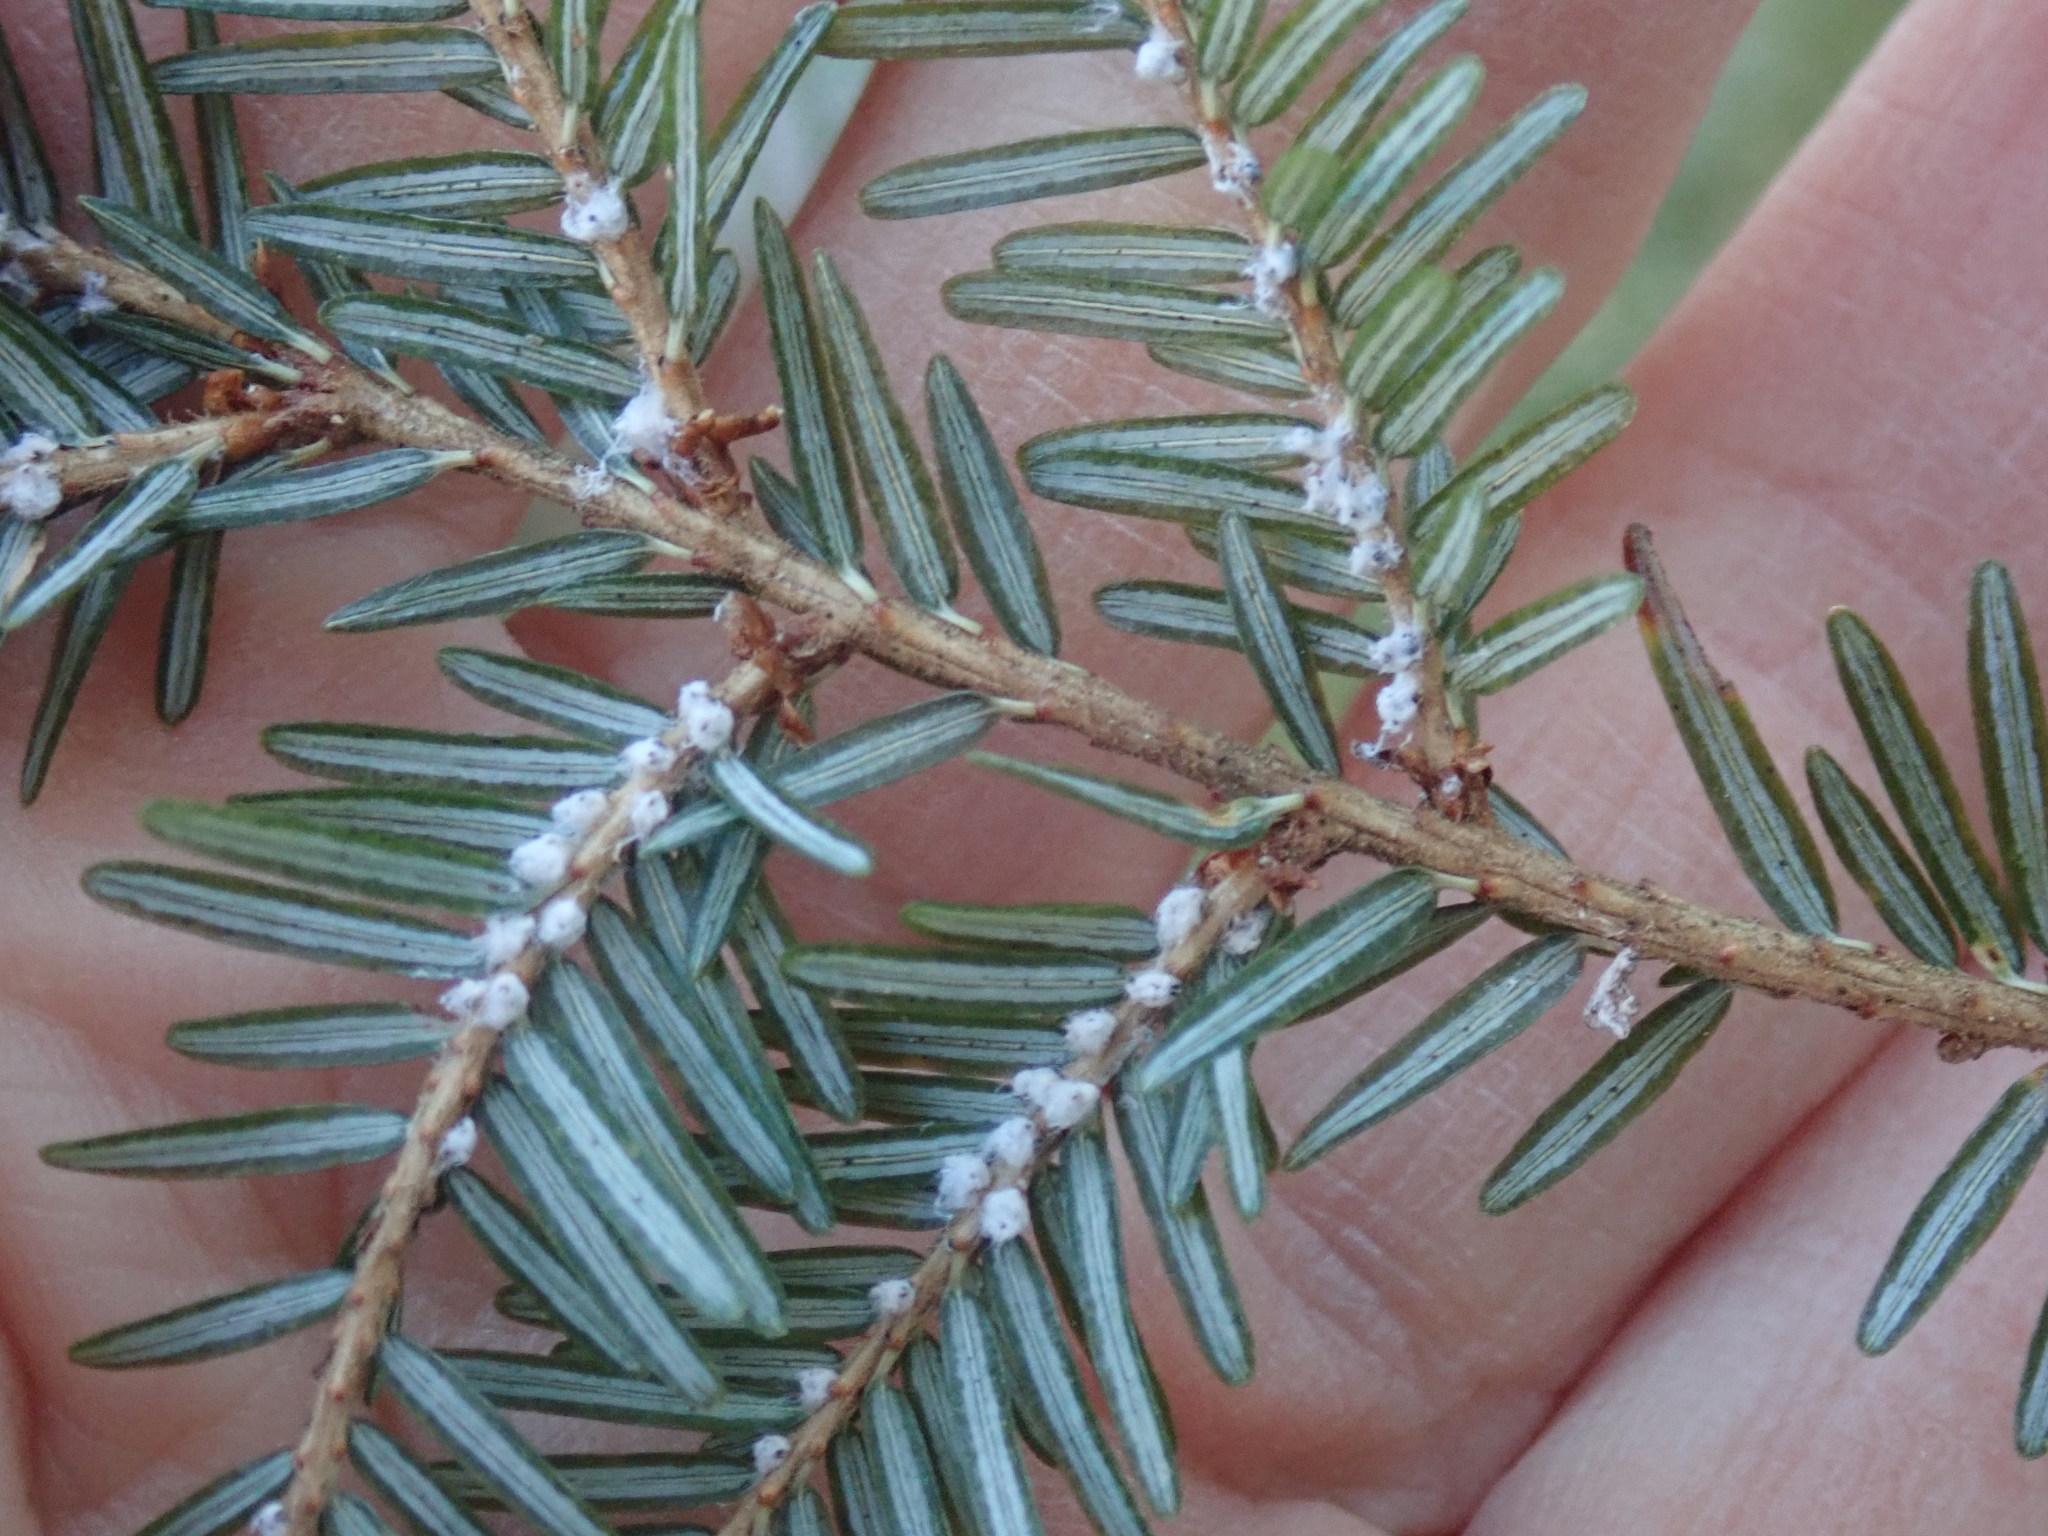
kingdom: Animalia
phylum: Arthropoda
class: Insecta
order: Hemiptera
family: Adelgidae
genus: Adelges
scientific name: Adelges tsugae
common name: Hemlock woolly adelgid
